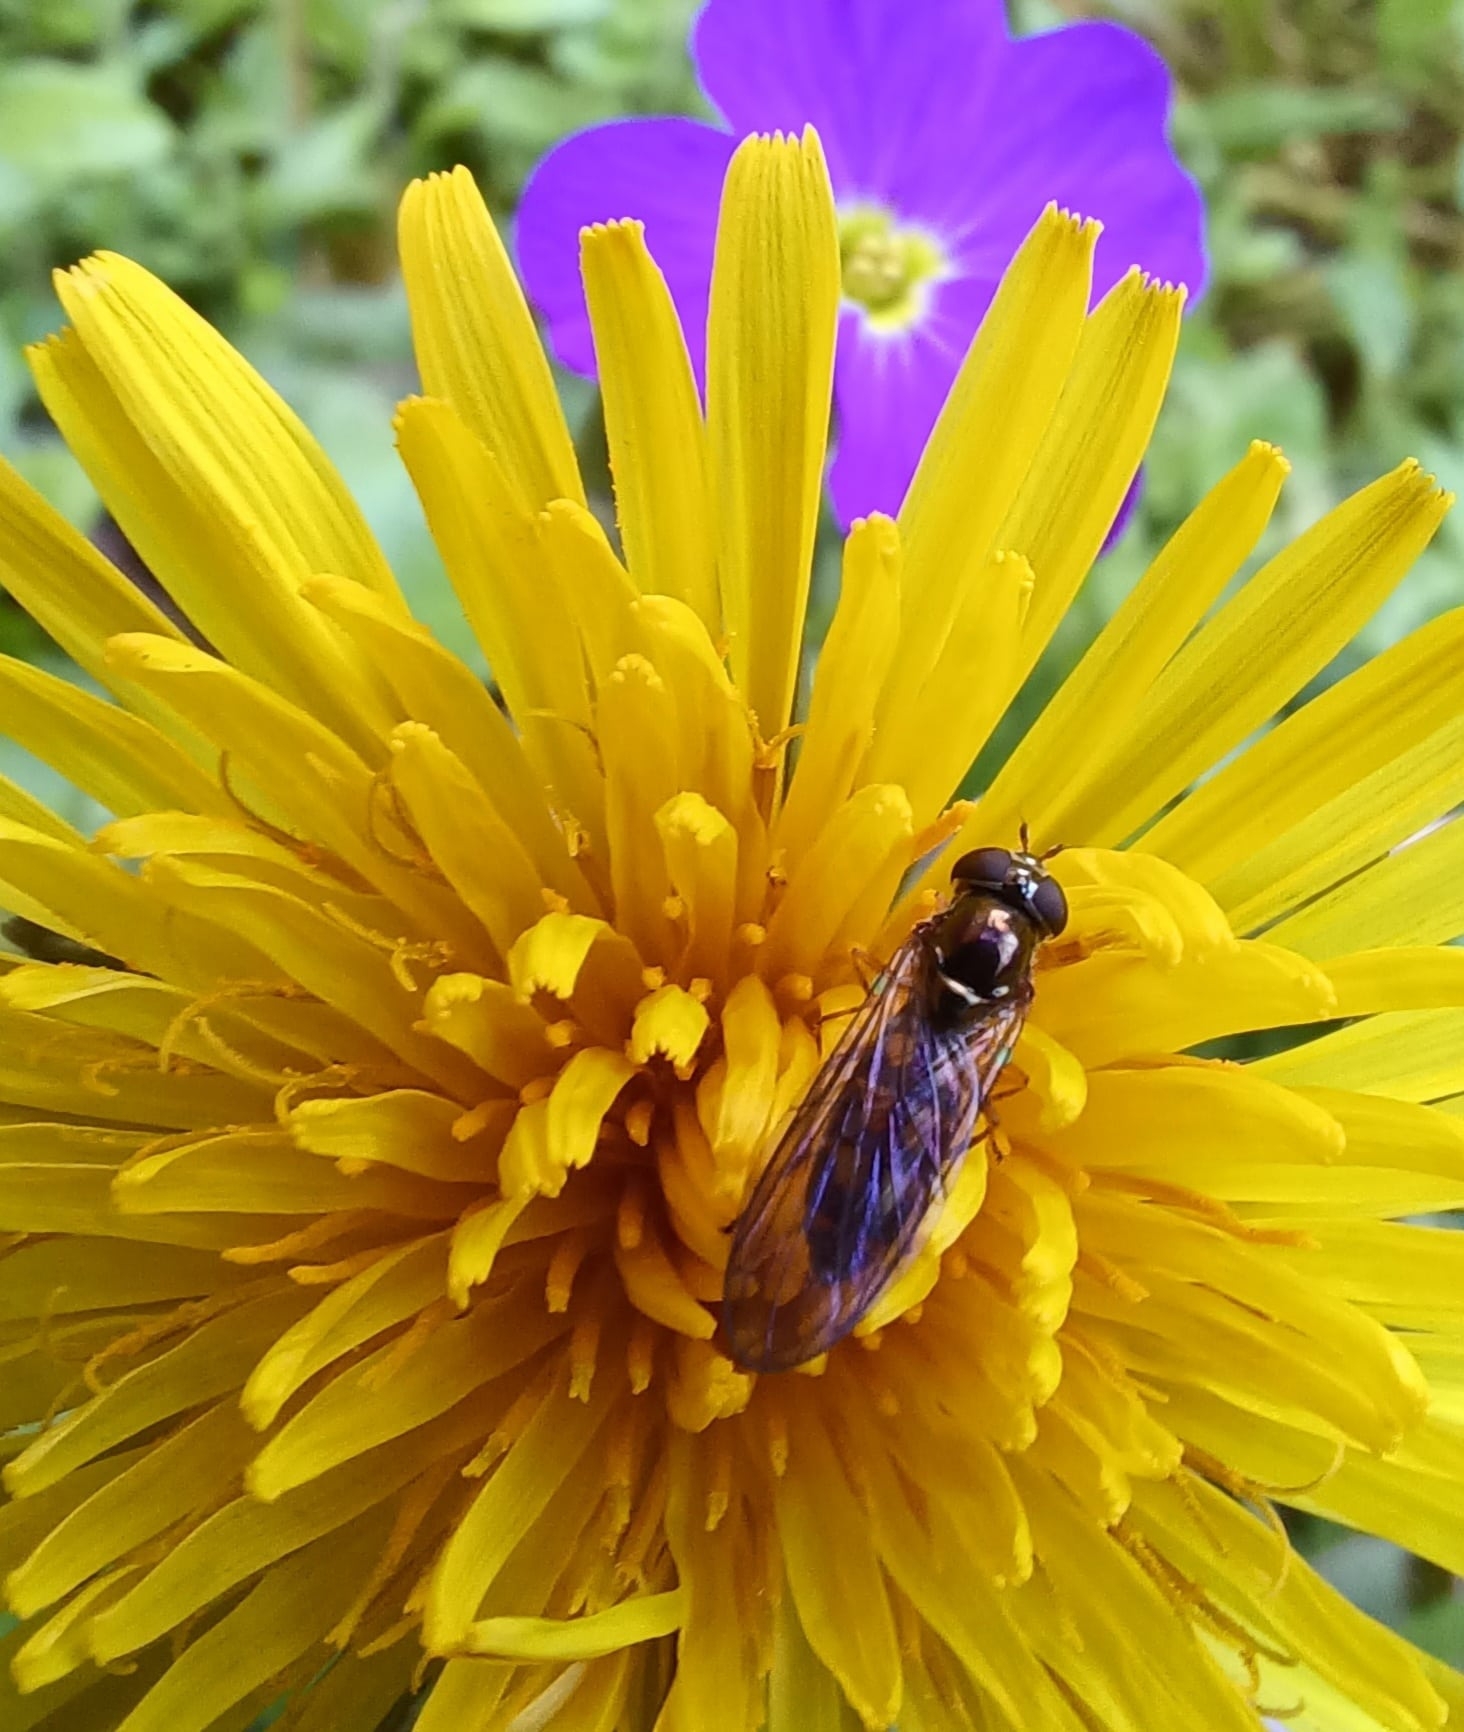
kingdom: Animalia
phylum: Arthropoda
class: Insecta
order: Diptera
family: Syrphidae
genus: Melanostoma
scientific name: Melanostoma scalare
